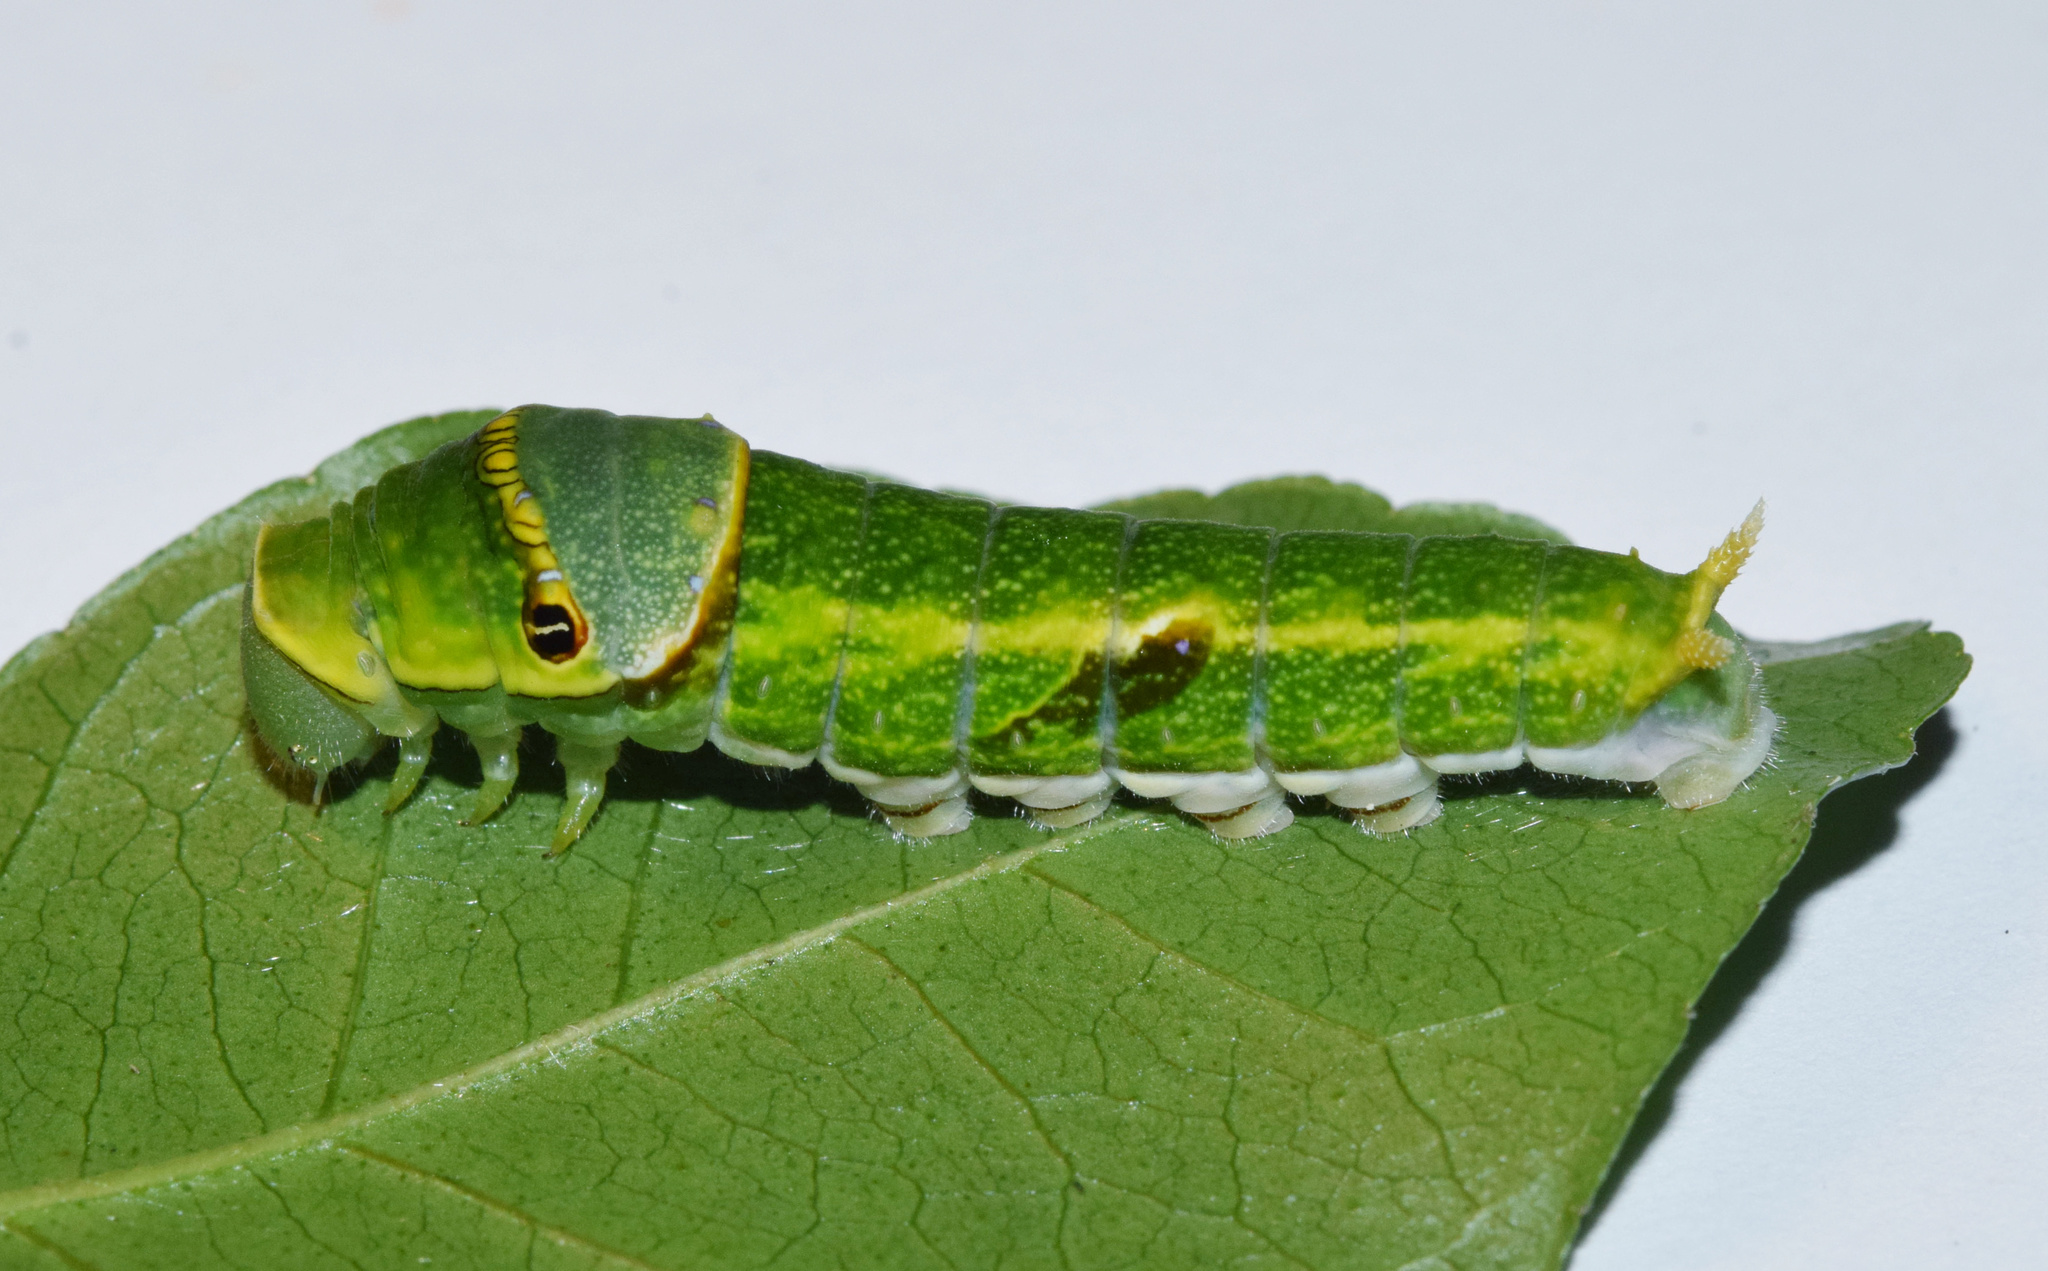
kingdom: Animalia
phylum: Arthropoda
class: Insecta
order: Lepidoptera
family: Papilionidae
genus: Papilio
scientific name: Papilio nireus
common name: Greenbanded swallowtail
